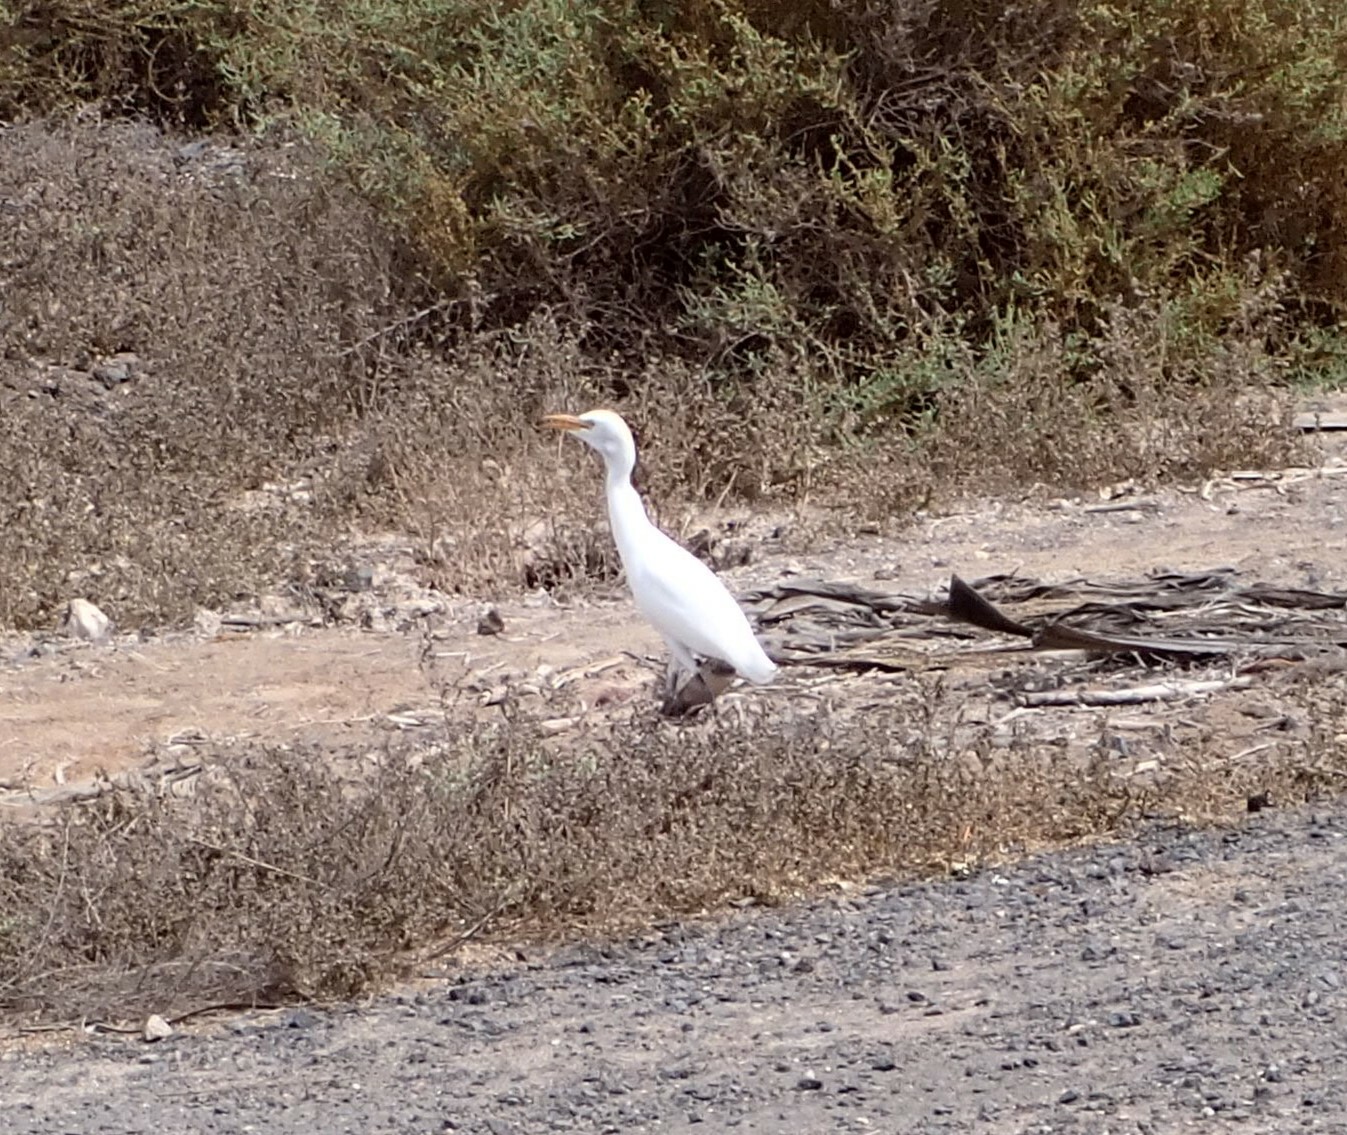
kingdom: Animalia
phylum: Chordata
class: Aves
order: Pelecaniformes
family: Ardeidae
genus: Bubulcus
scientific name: Bubulcus ibis
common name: Cattle egret
